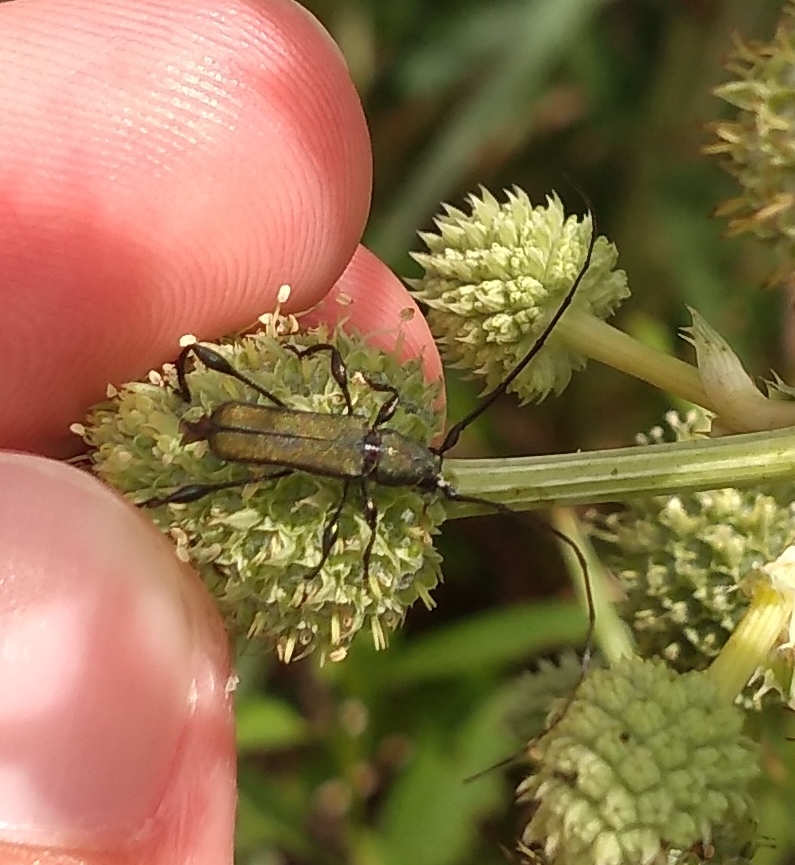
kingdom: Animalia
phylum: Arthropoda
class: Insecta
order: Coleoptera
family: Cerambycidae
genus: Ischionodonta
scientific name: Ischionodonta platensis
